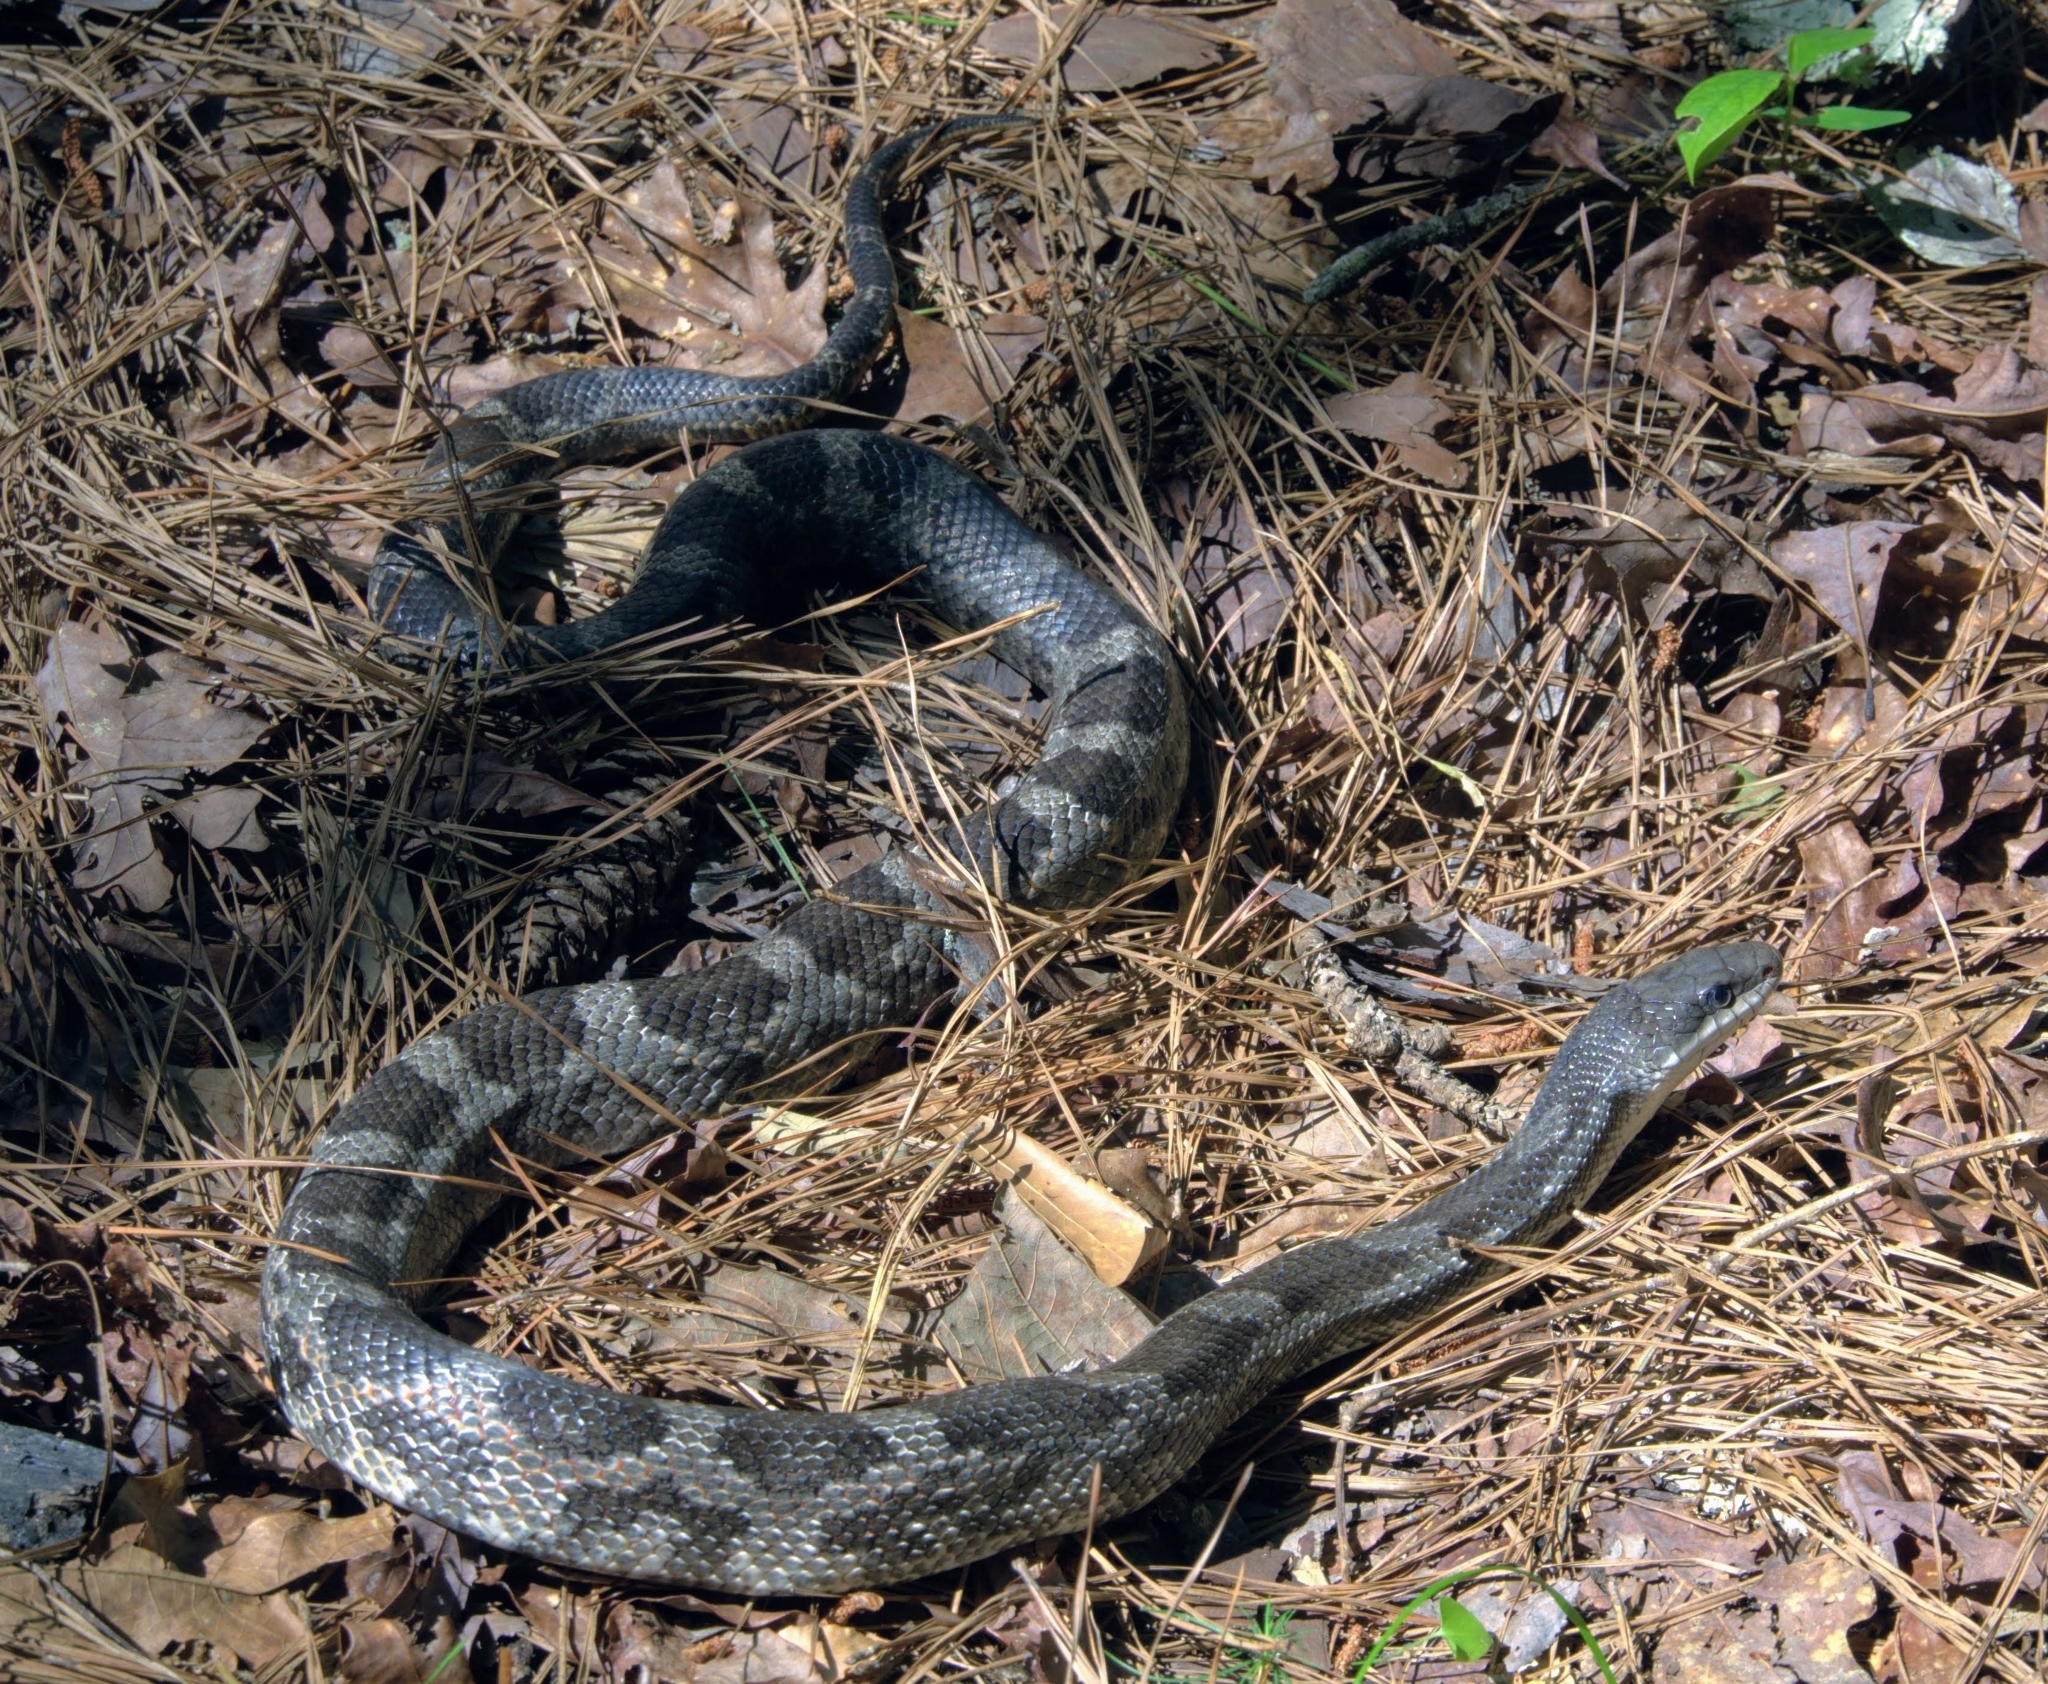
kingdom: Animalia
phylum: Chordata
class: Squamata
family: Colubridae
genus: Pantherophis
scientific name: Pantherophis obsoletus
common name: Black rat snake
